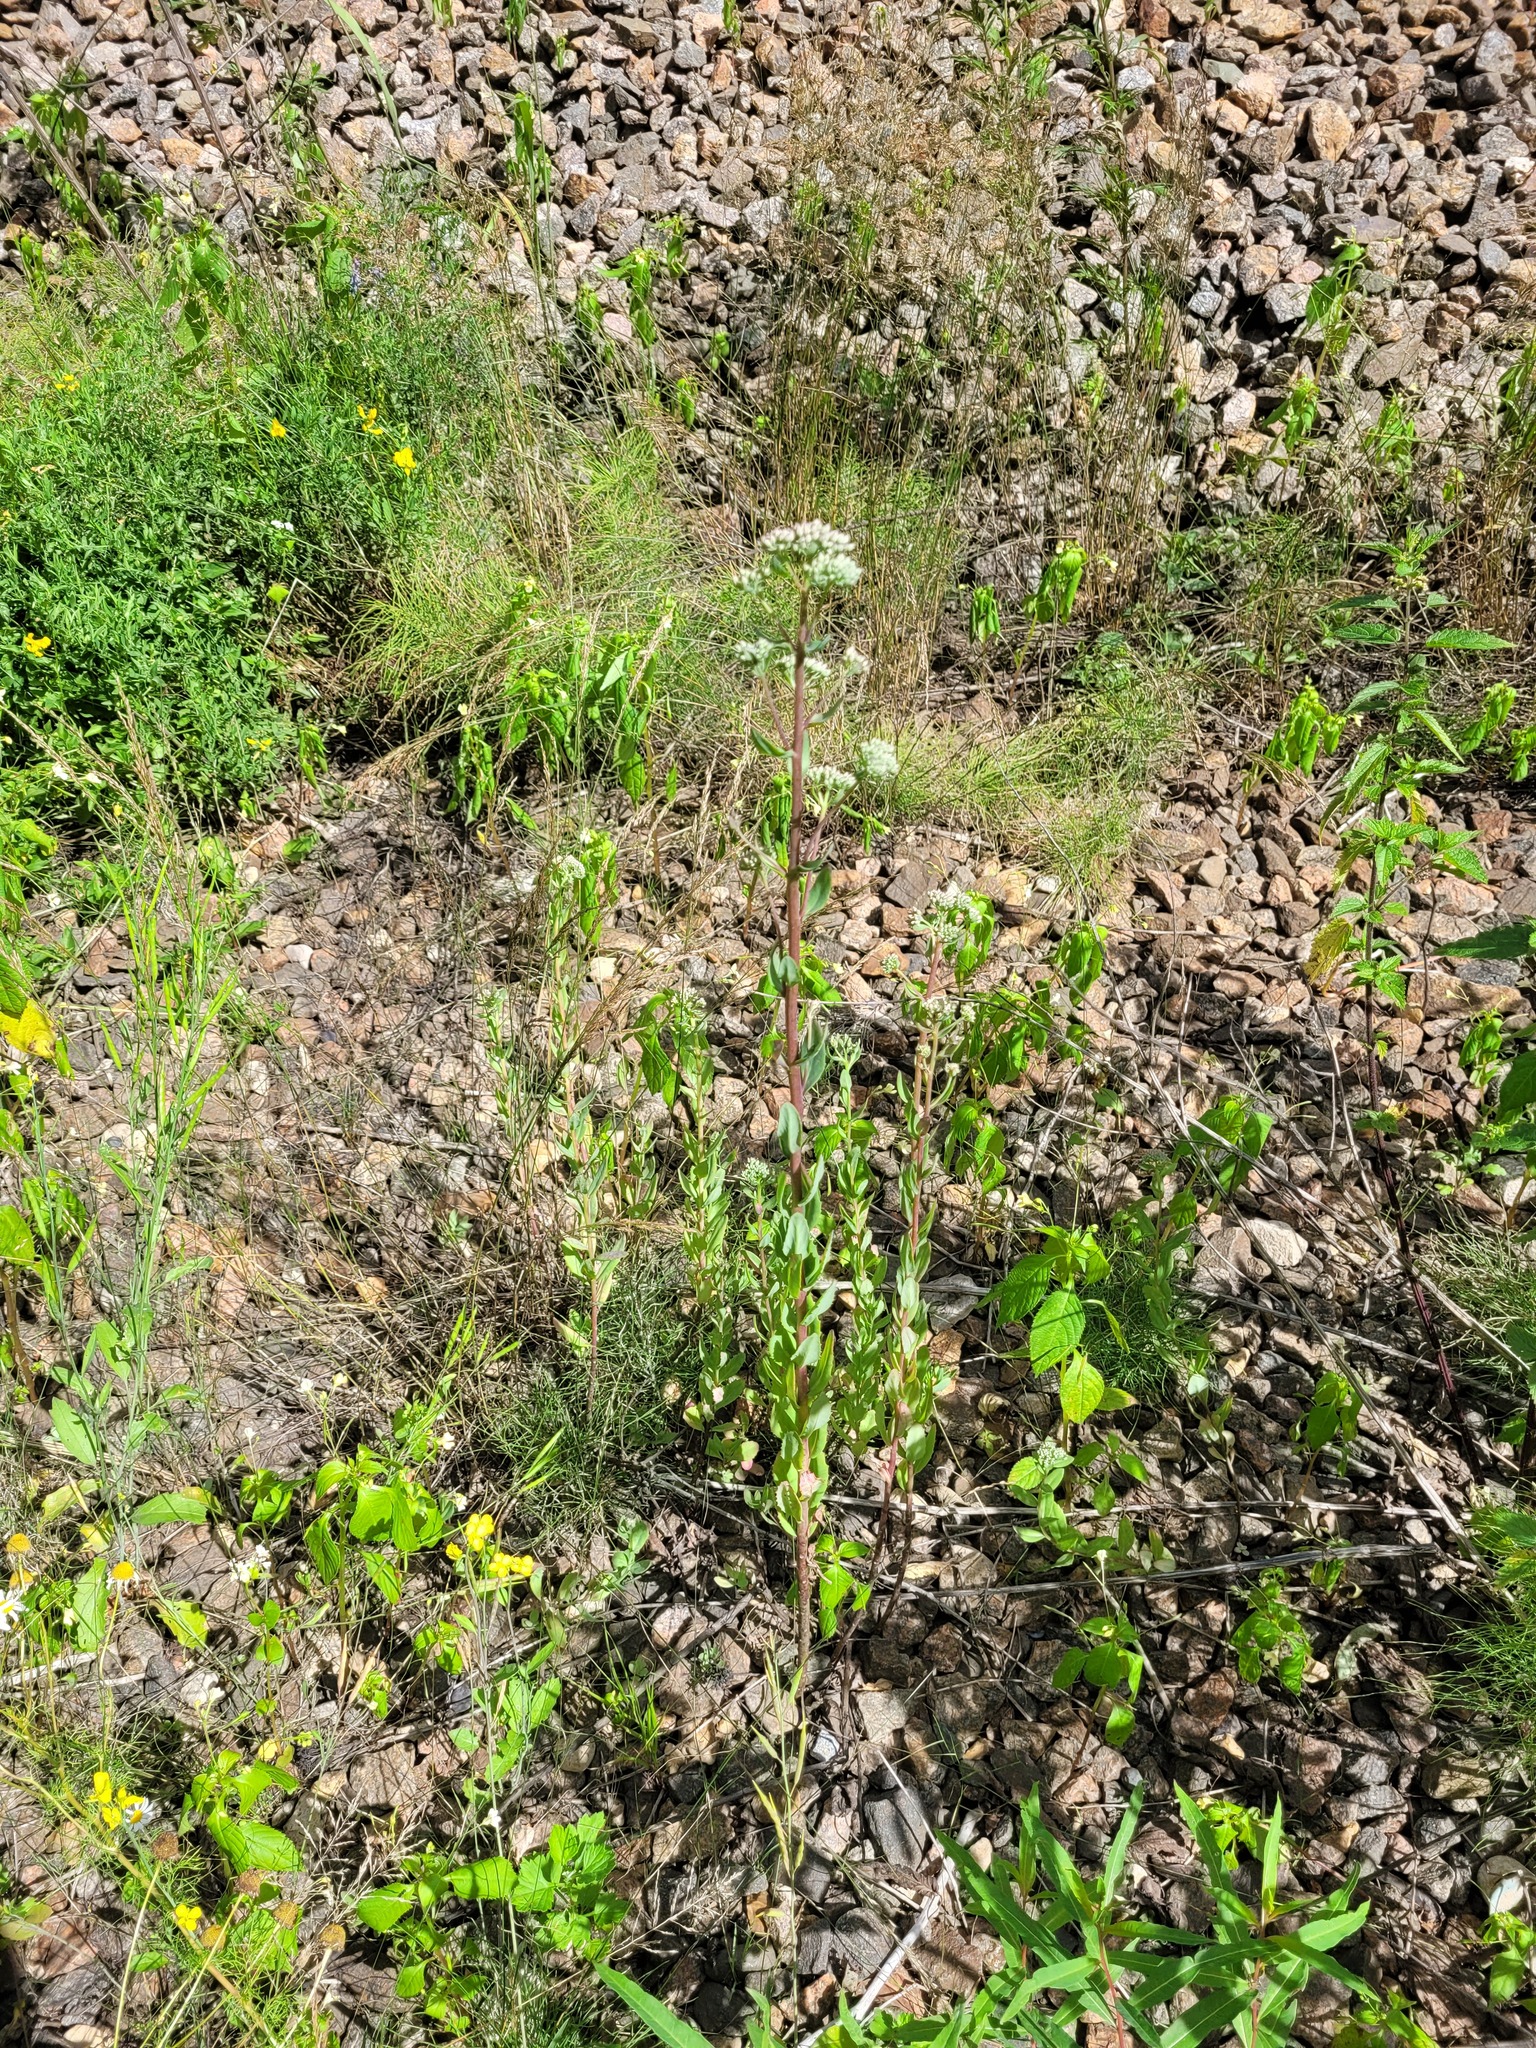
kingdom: Plantae
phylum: Tracheophyta
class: Magnoliopsida
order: Saxifragales
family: Crassulaceae
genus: Hylotelephium
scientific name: Hylotelephium telephium
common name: Live-forever
